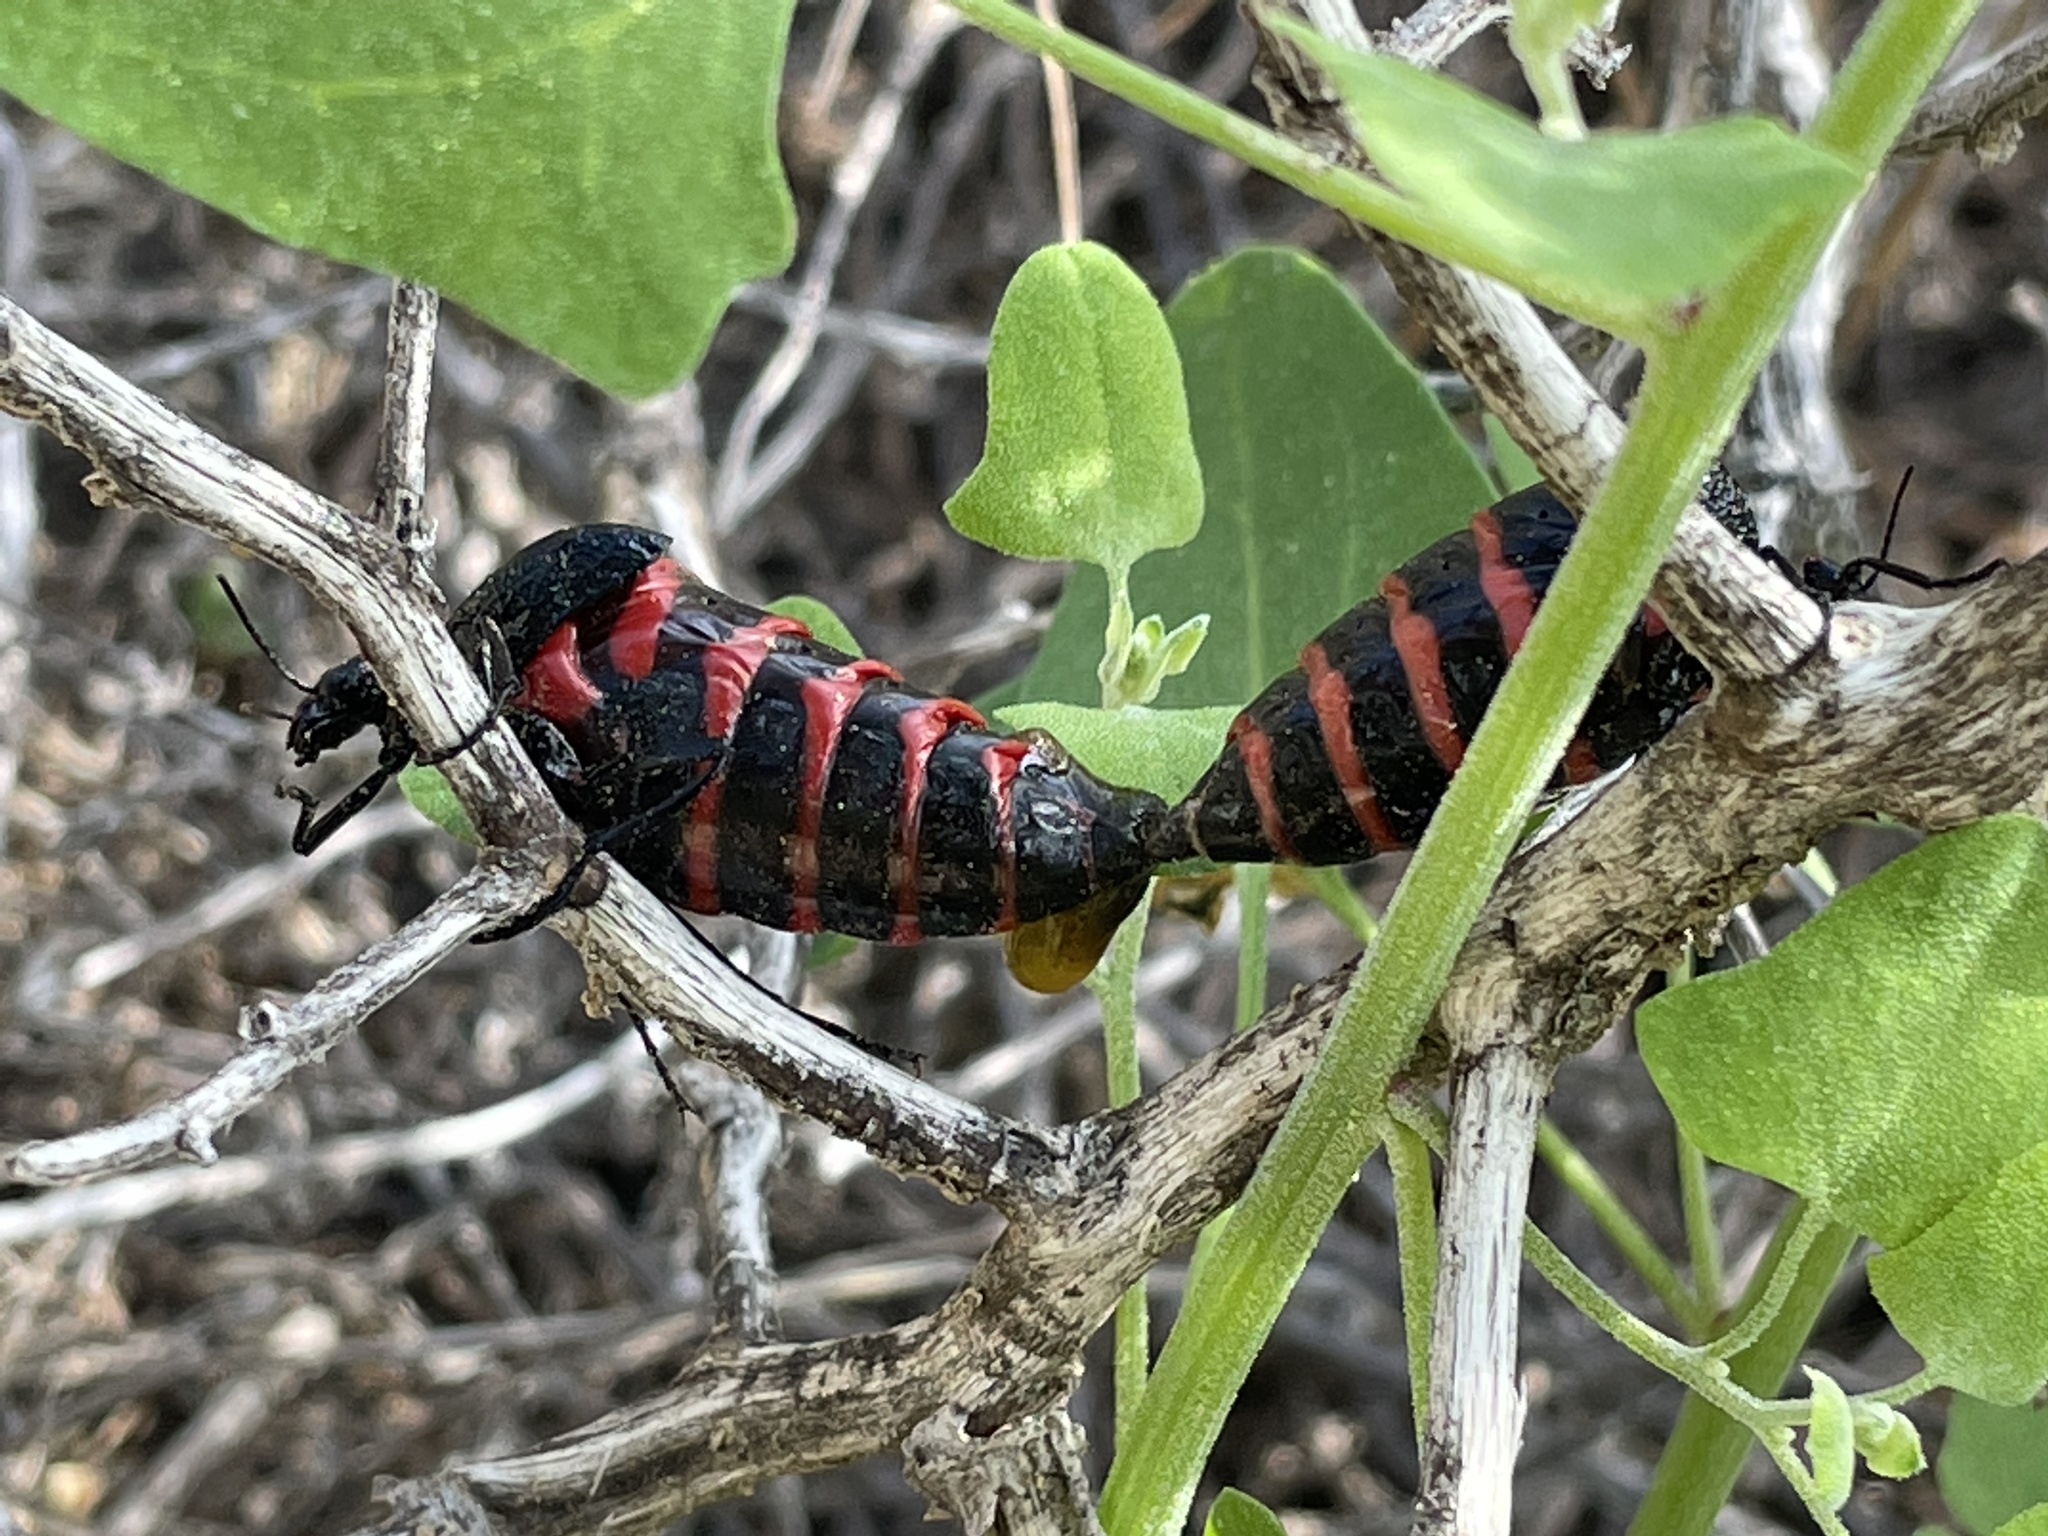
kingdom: Animalia
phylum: Arthropoda
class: Insecta
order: Coleoptera
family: Meloidae
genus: Megetra
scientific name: Megetra vittata
